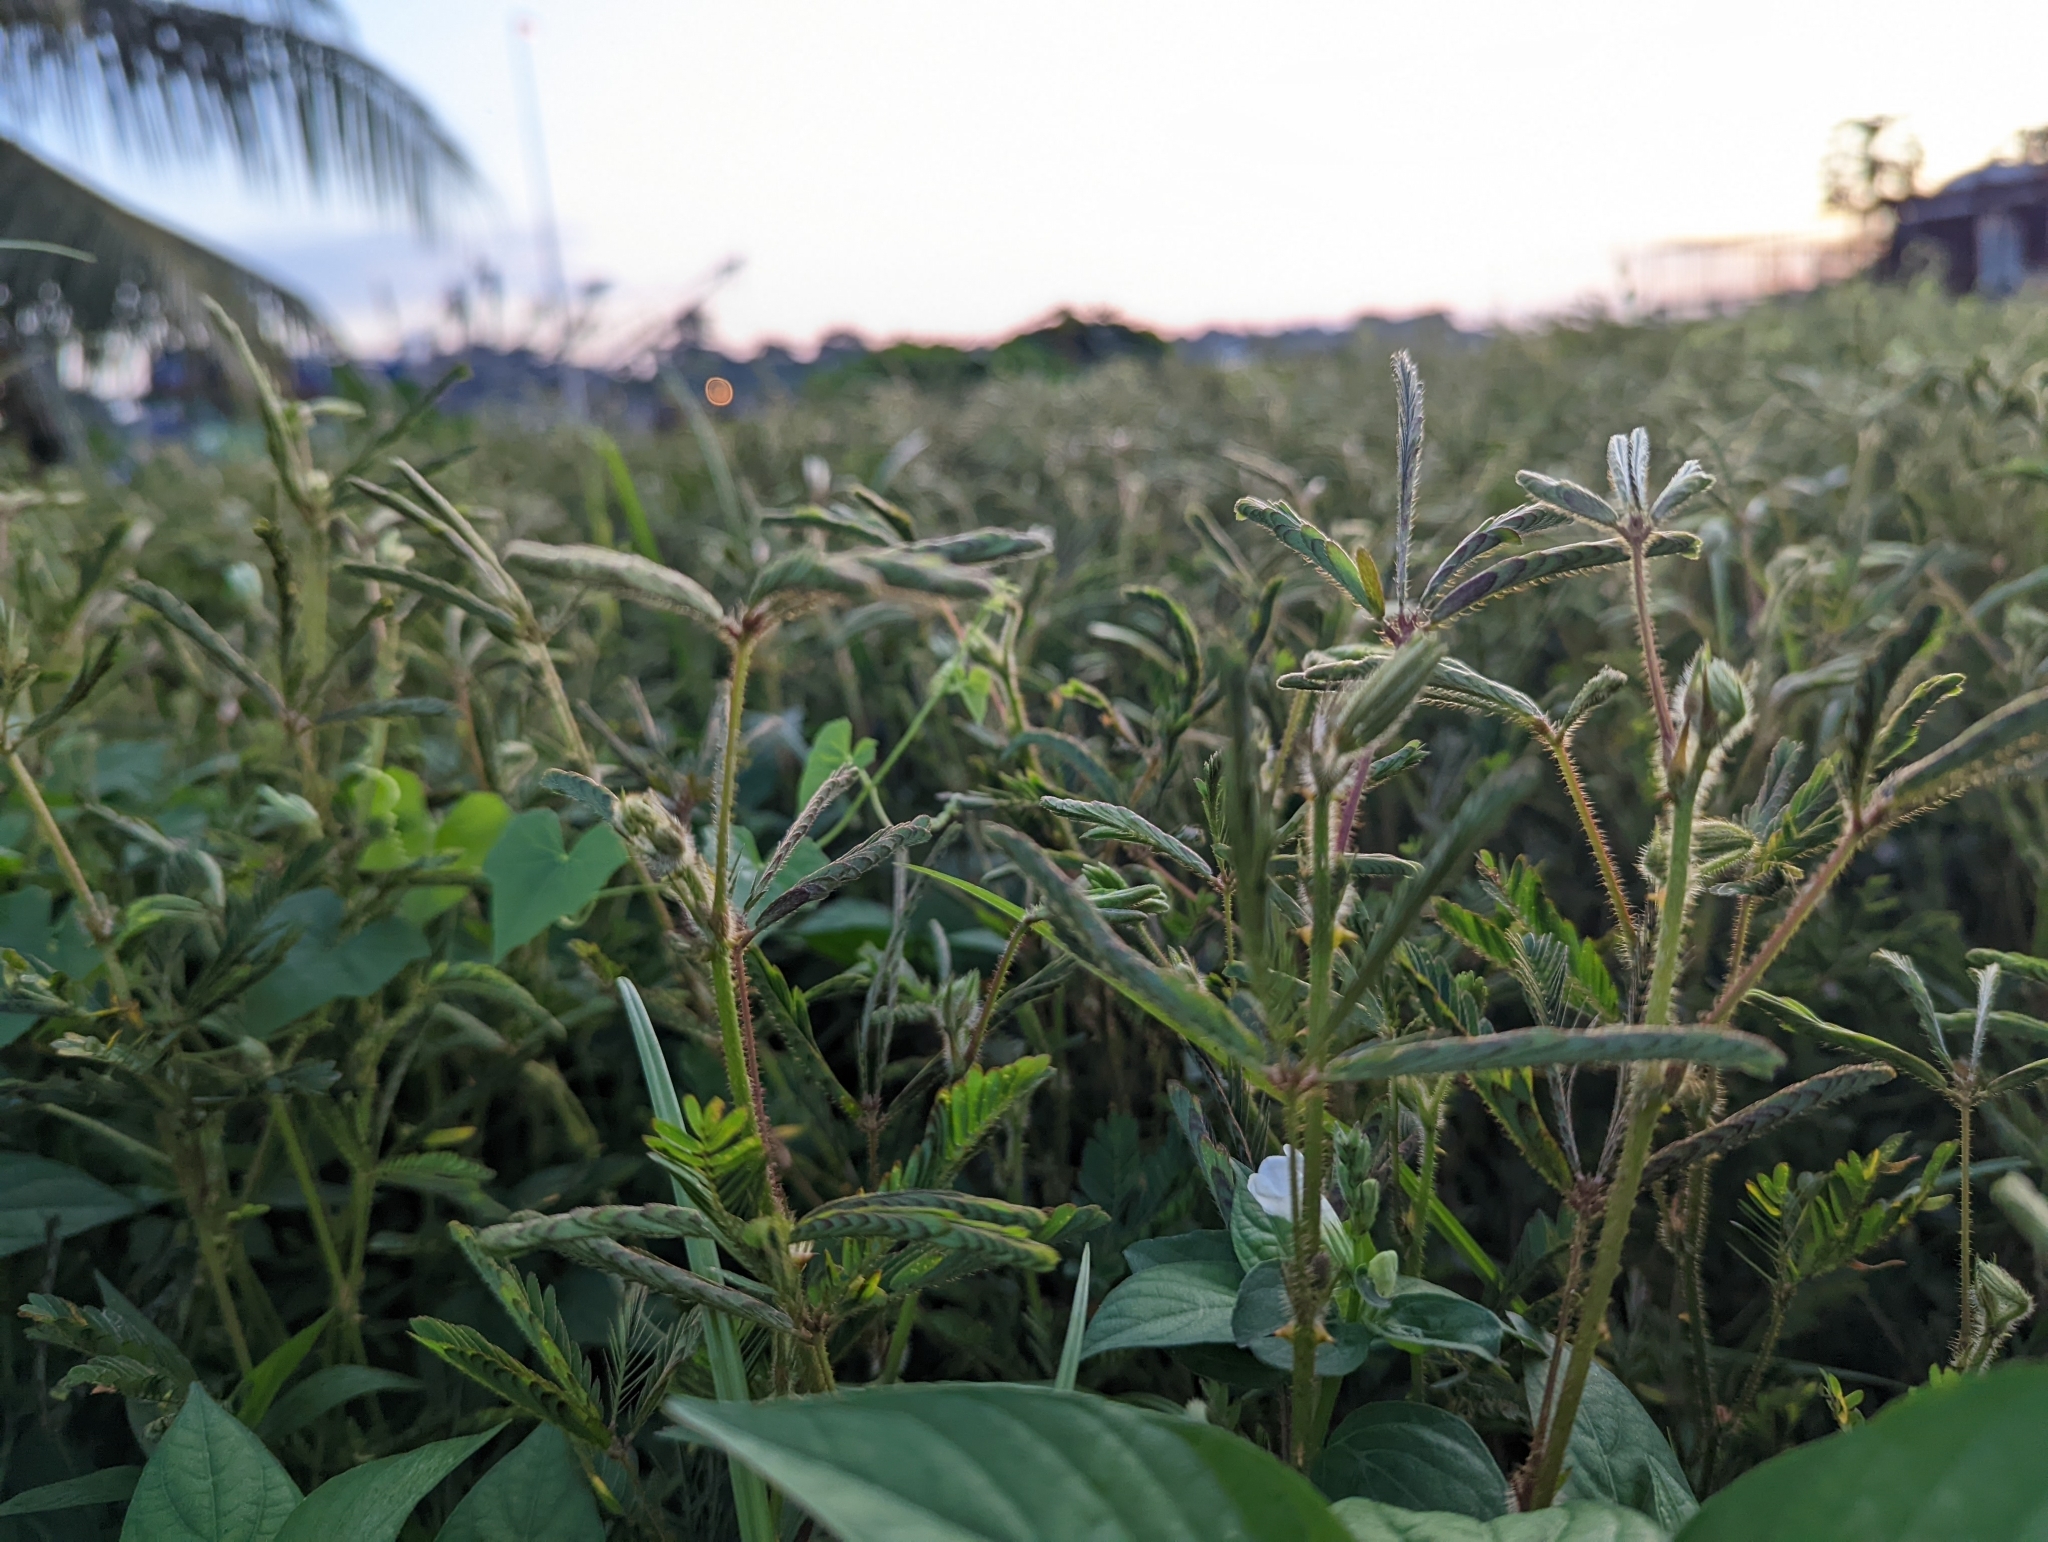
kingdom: Plantae
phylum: Tracheophyta
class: Magnoliopsida
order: Fabales
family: Fabaceae
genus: Mimosa
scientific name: Mimosa pudica
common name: Sensitive plant
